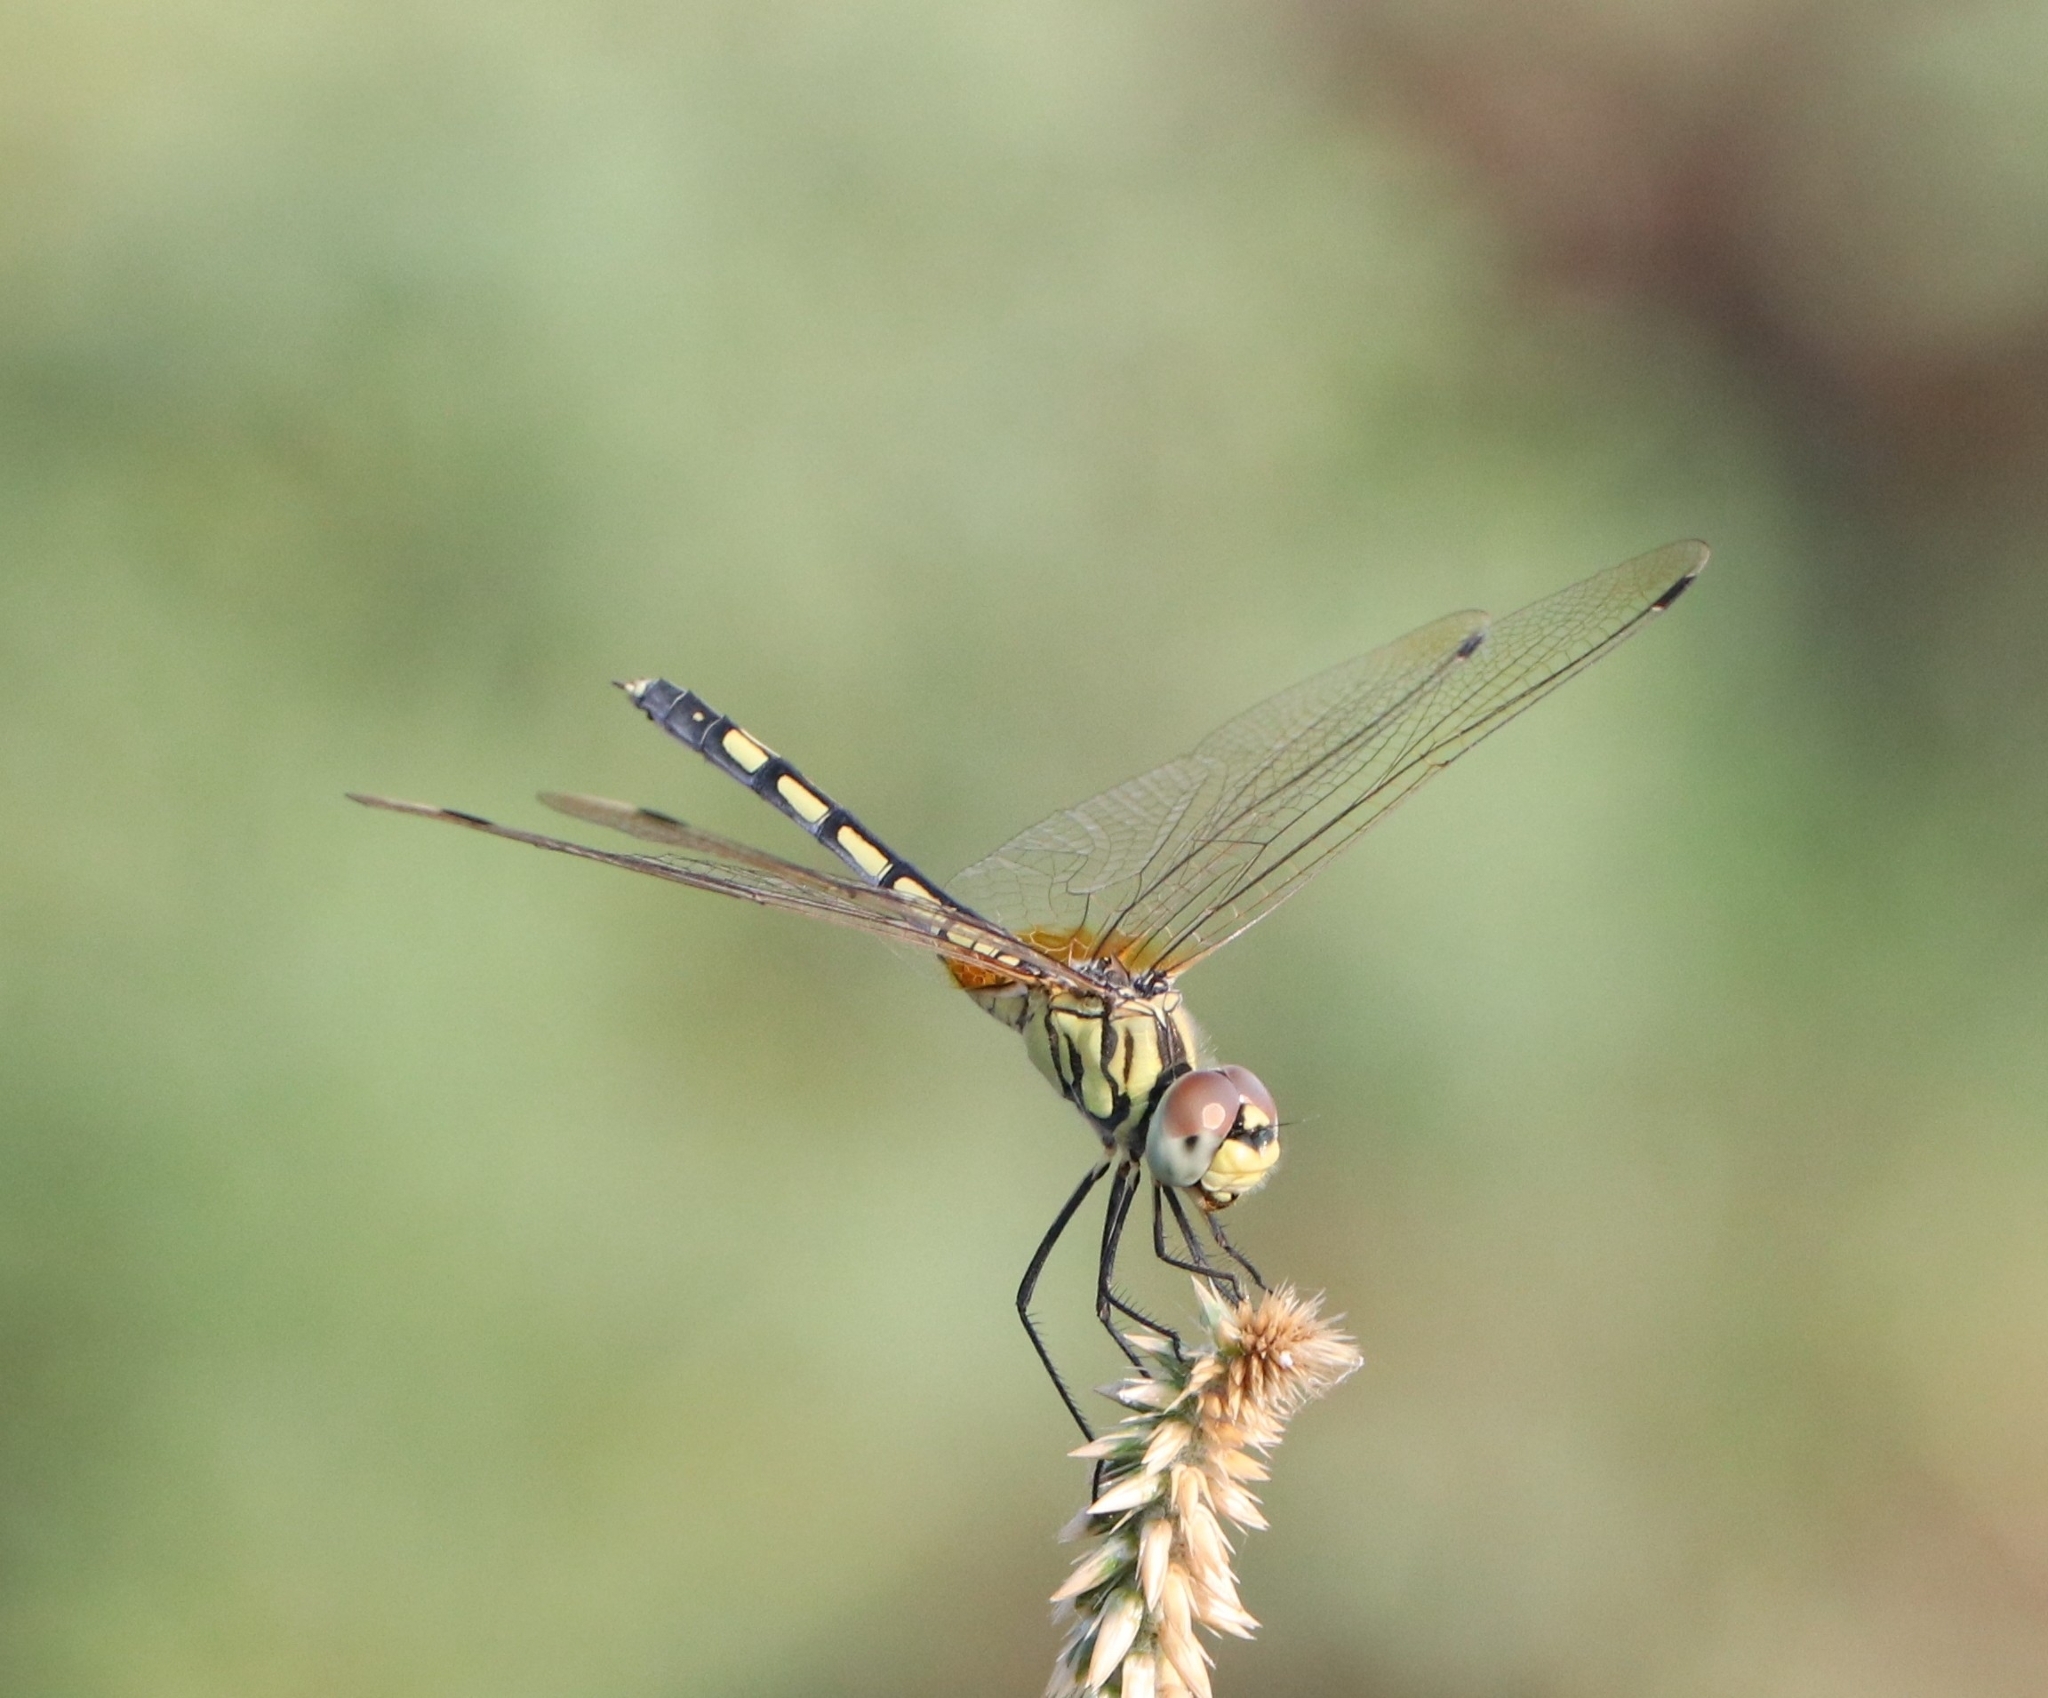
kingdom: Animalia
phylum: Arthropoda
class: Insecta
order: Odonata
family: Libellulidae
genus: Trithemis
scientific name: Trithemis pallidinervis
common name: Dancing dropwing
